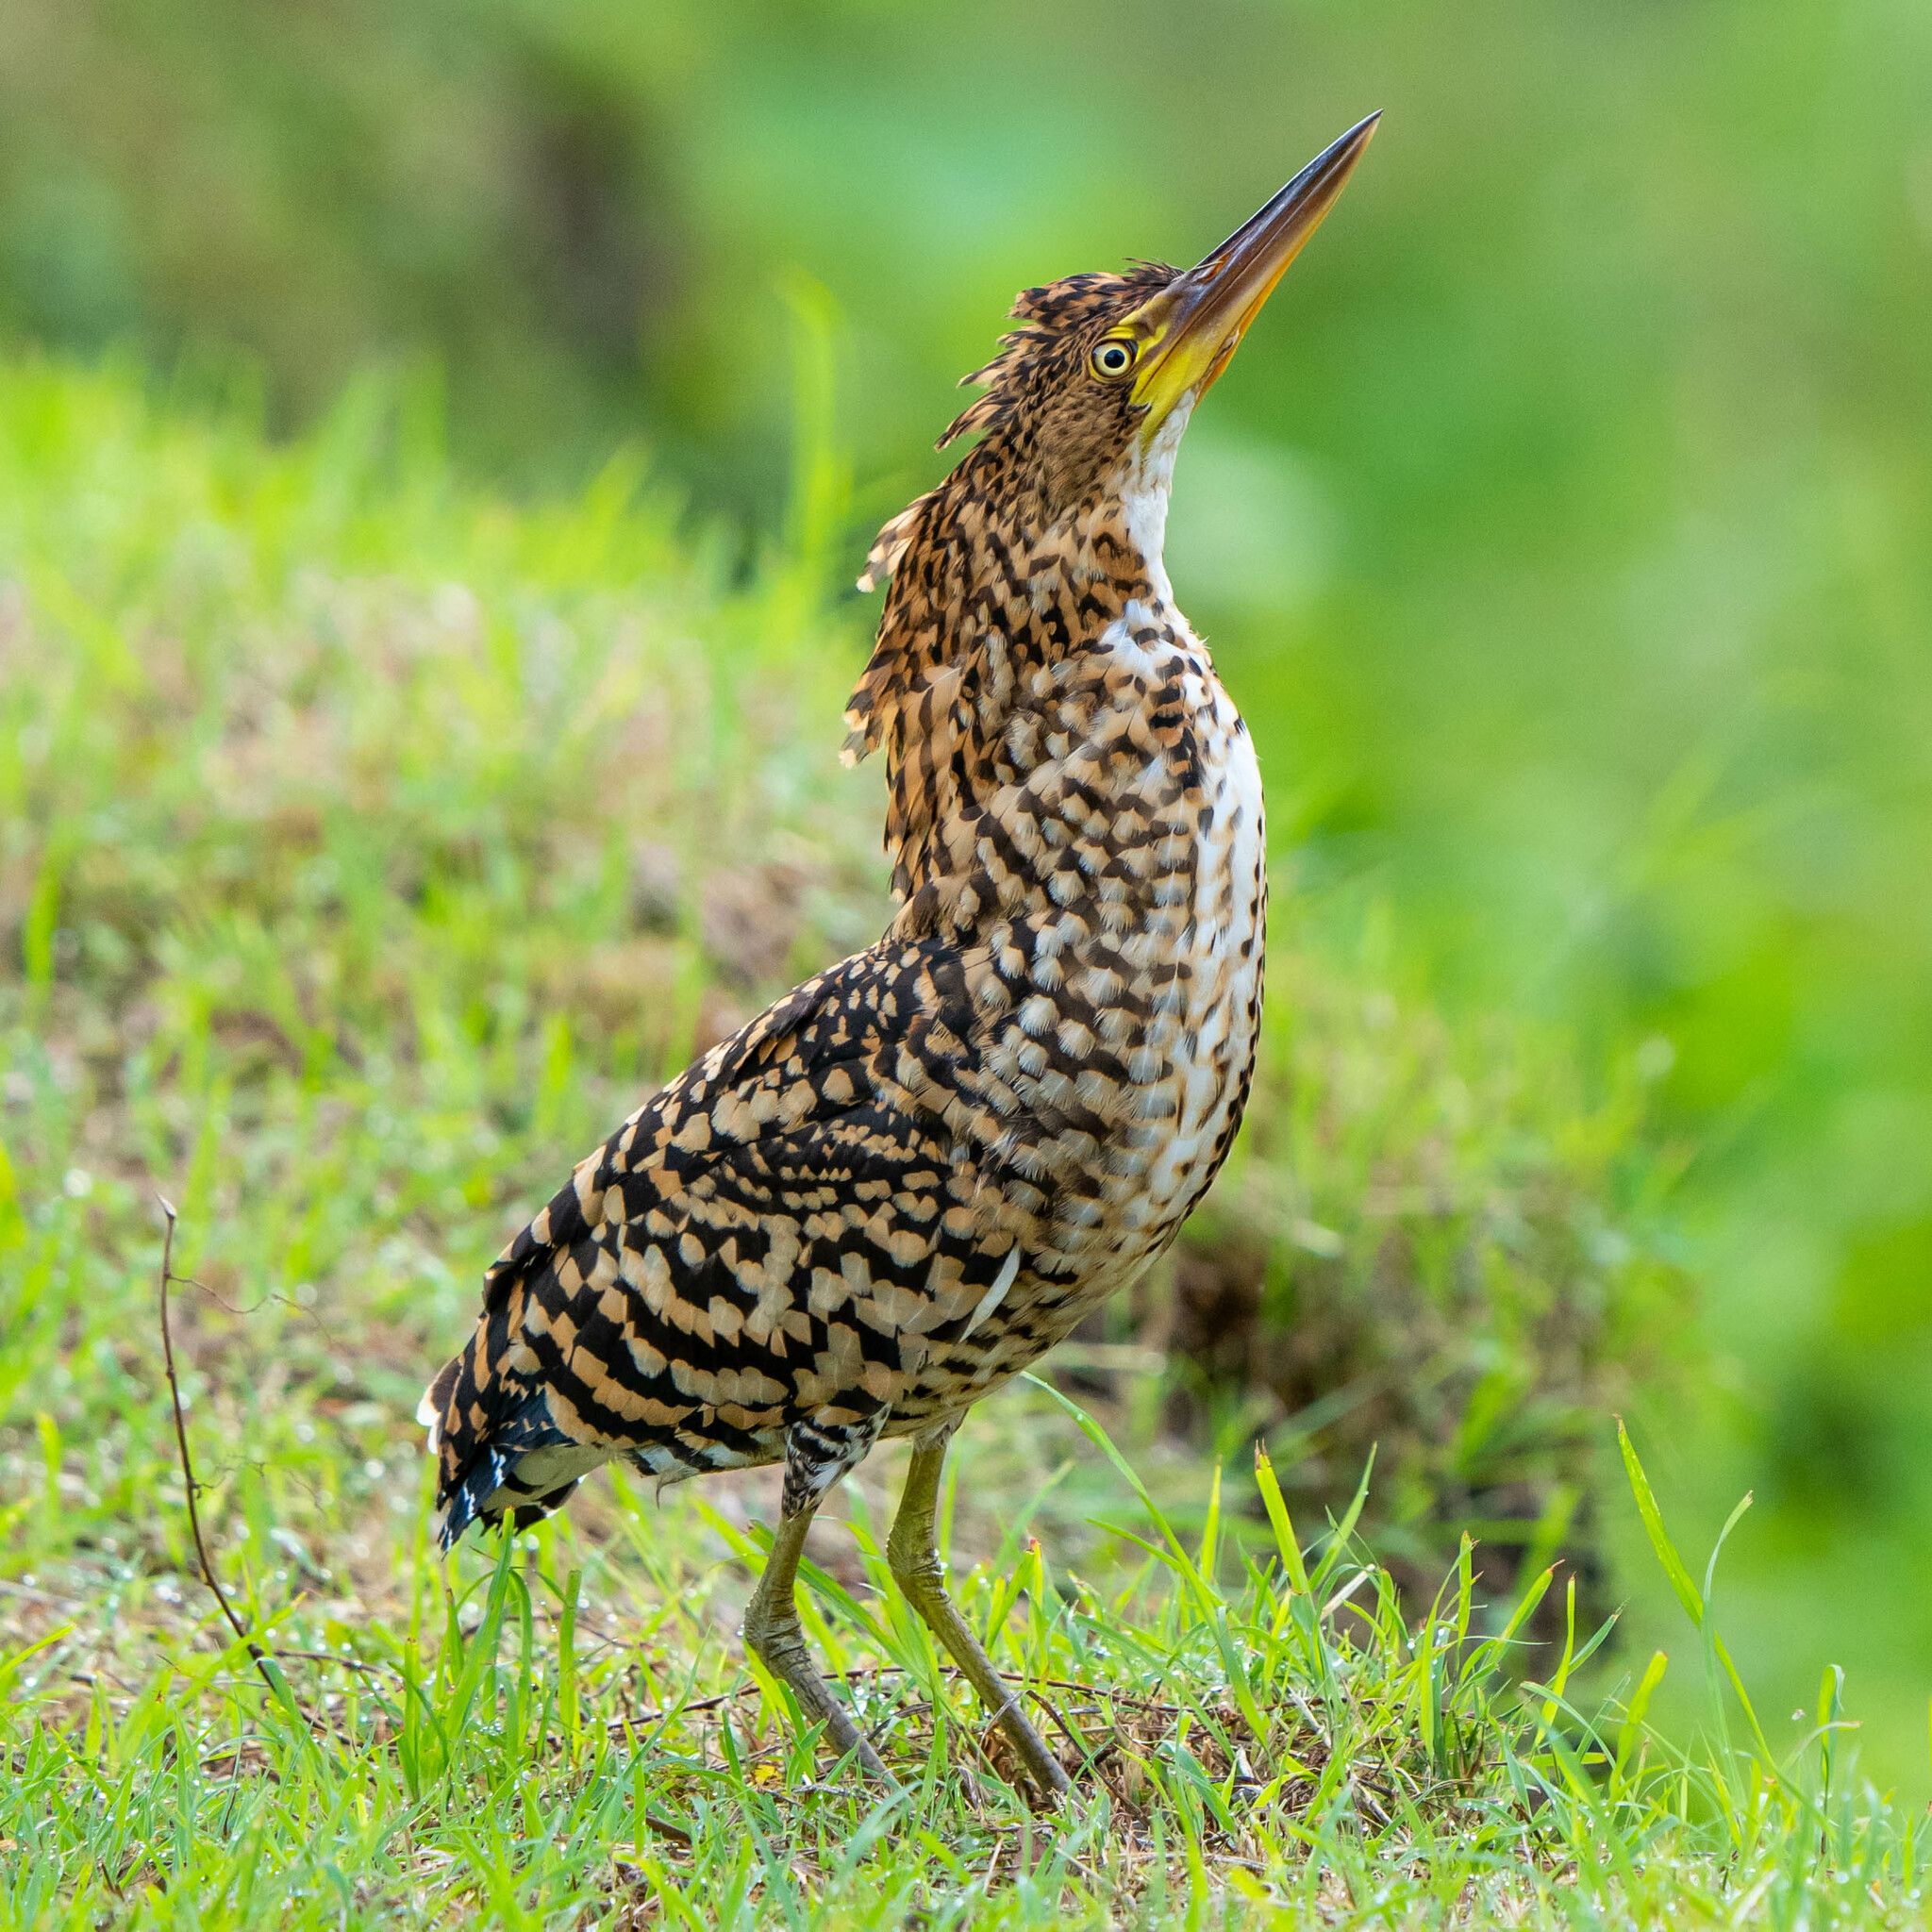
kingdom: Animalia
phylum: Chordata
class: Aves
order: Pelecaniformes
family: Ardeidae
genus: Tigrisoma
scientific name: Tigrisoma lineatum
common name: Rufescent tiger-heron
